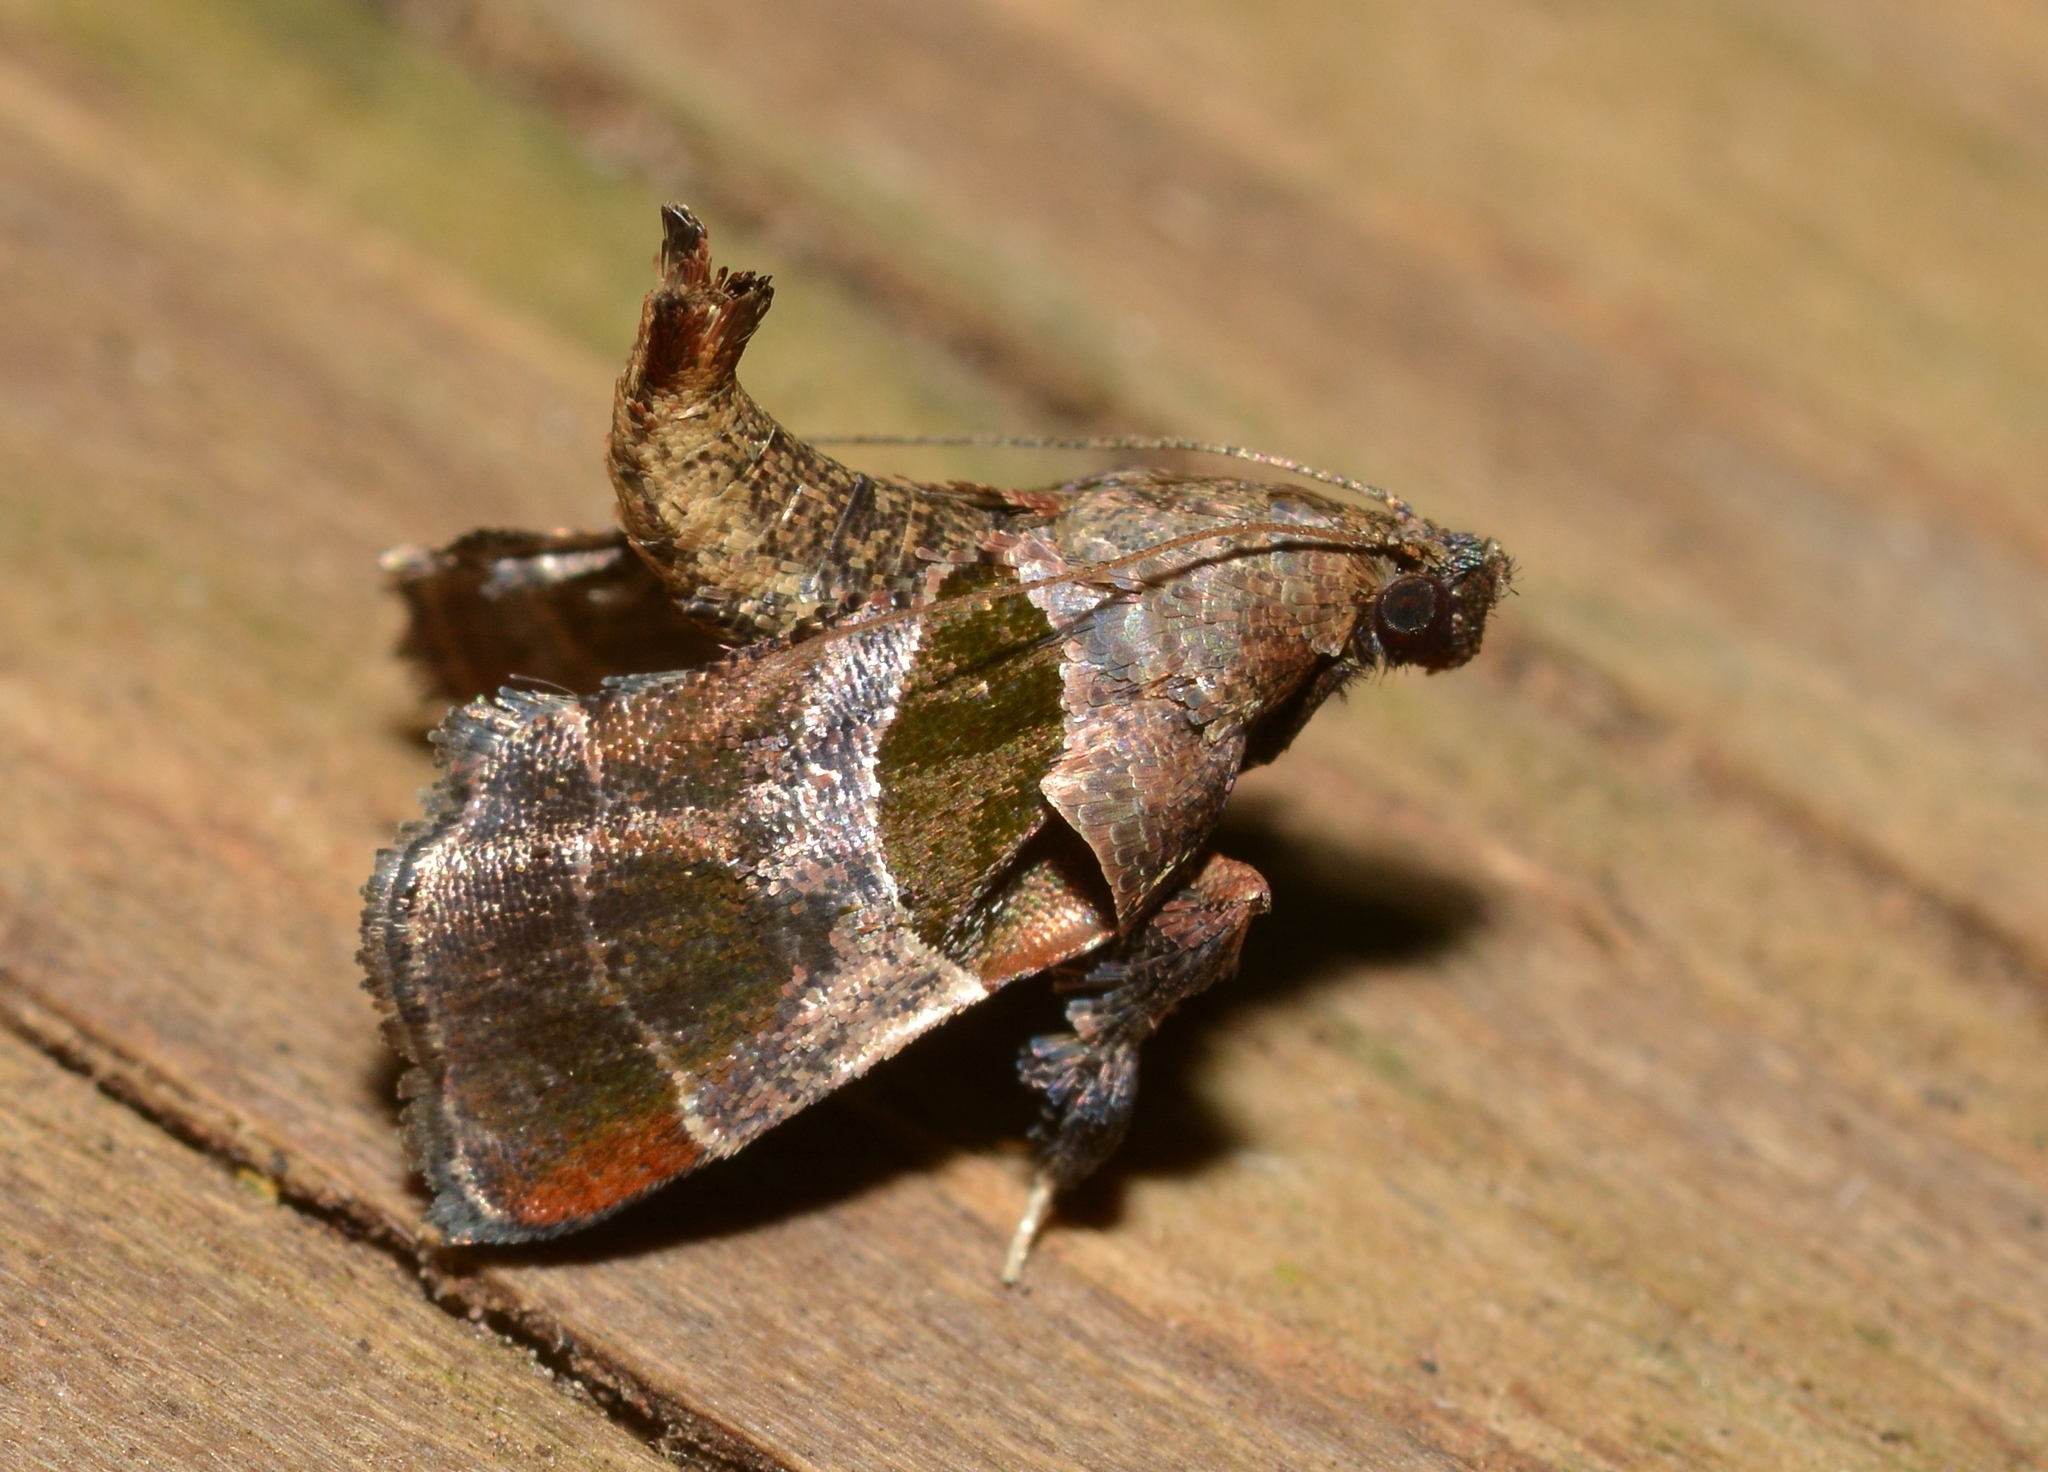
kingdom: Animalia
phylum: Arthropoda
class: Insecta
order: Lepidoptera
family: Pyralidae
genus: Tosale
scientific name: Tosale oviplagalis
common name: Dimorphic tosale moth
